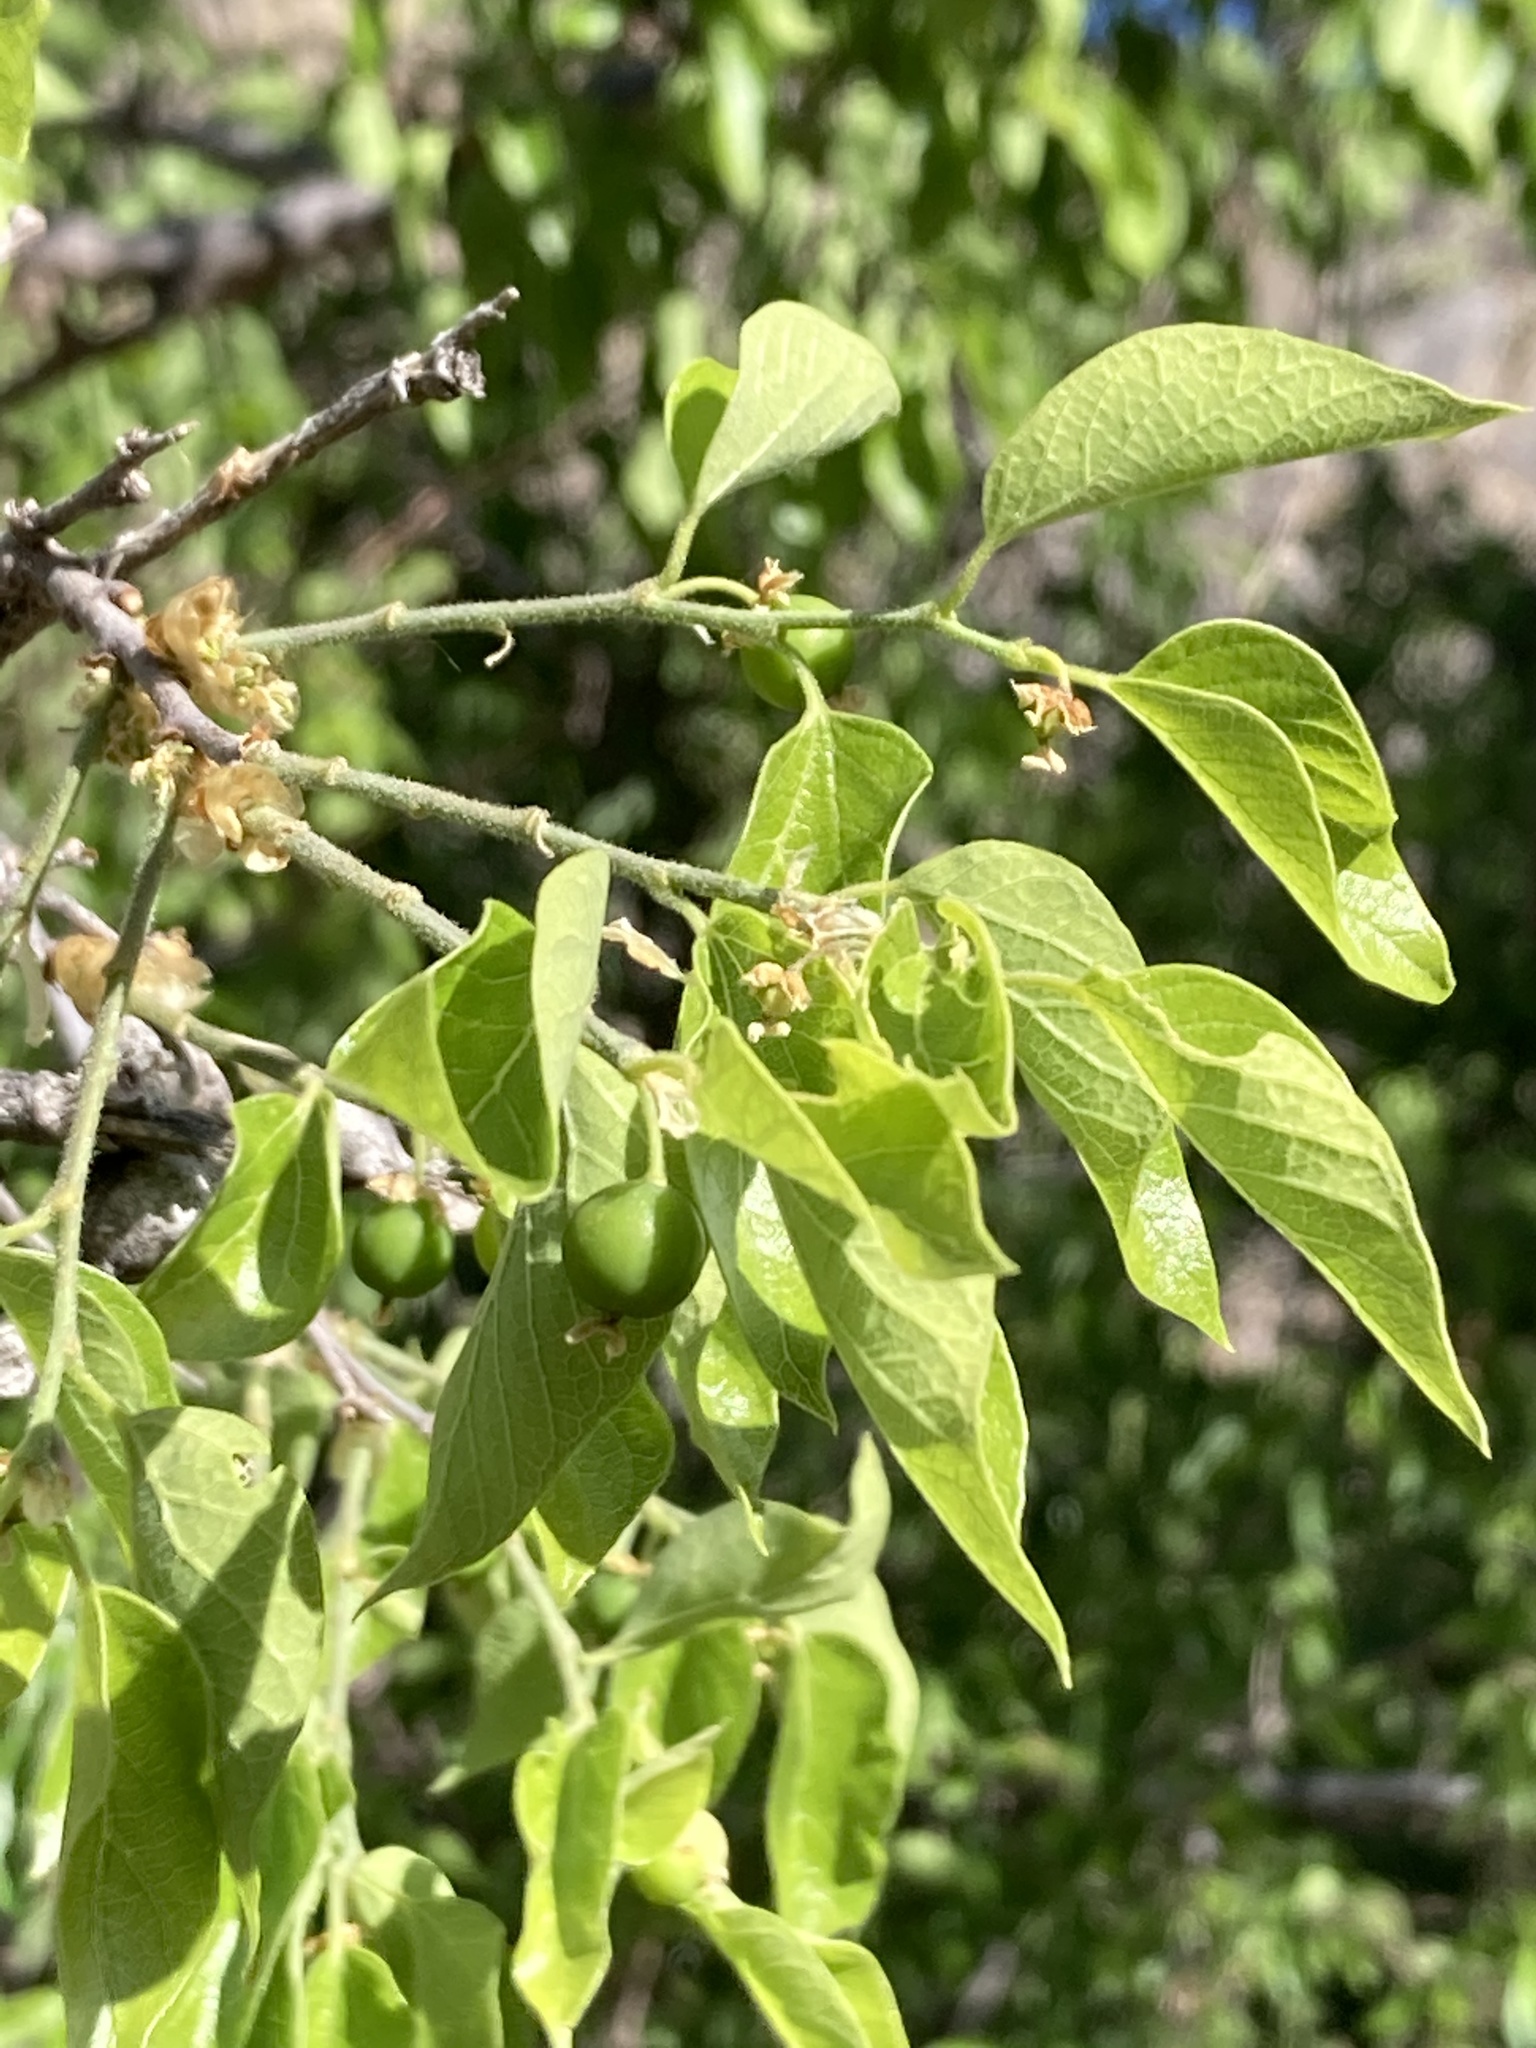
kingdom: Plantae
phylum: Tracheophyta
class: Magnoliopsida
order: Rosales
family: Cannabaceae
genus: Celtis
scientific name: Celtis reticulata
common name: Netleaf hackberry
